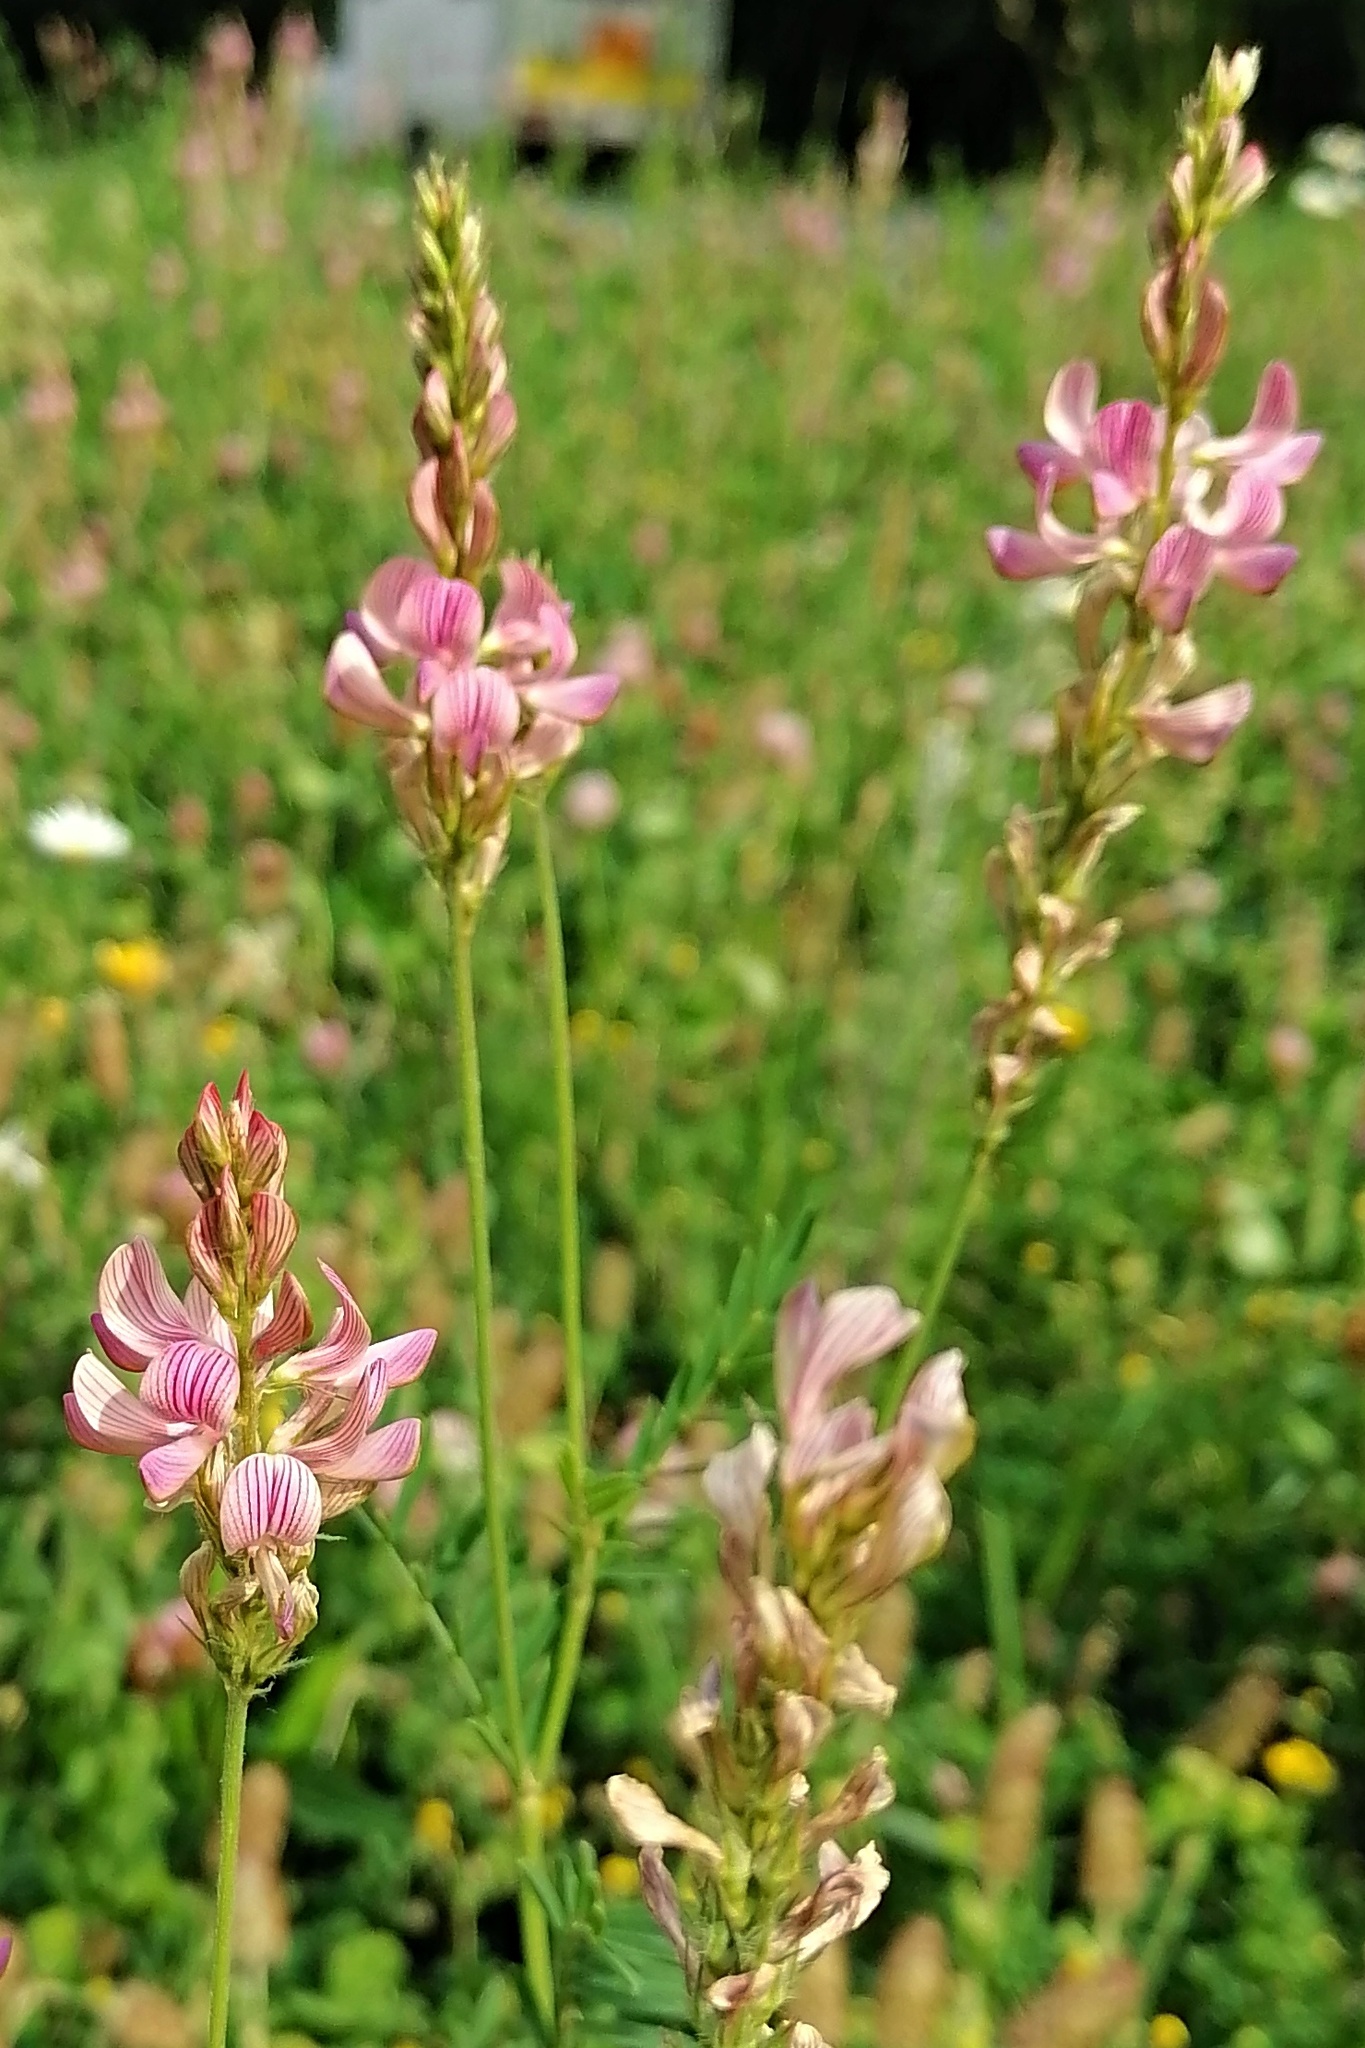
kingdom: Plantae
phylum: Tracheophyta
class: Magnoliopsida
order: Fabales
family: Fabaceae
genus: Onobrychis
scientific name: Onobrychis viciifolia
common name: Sainfoin
